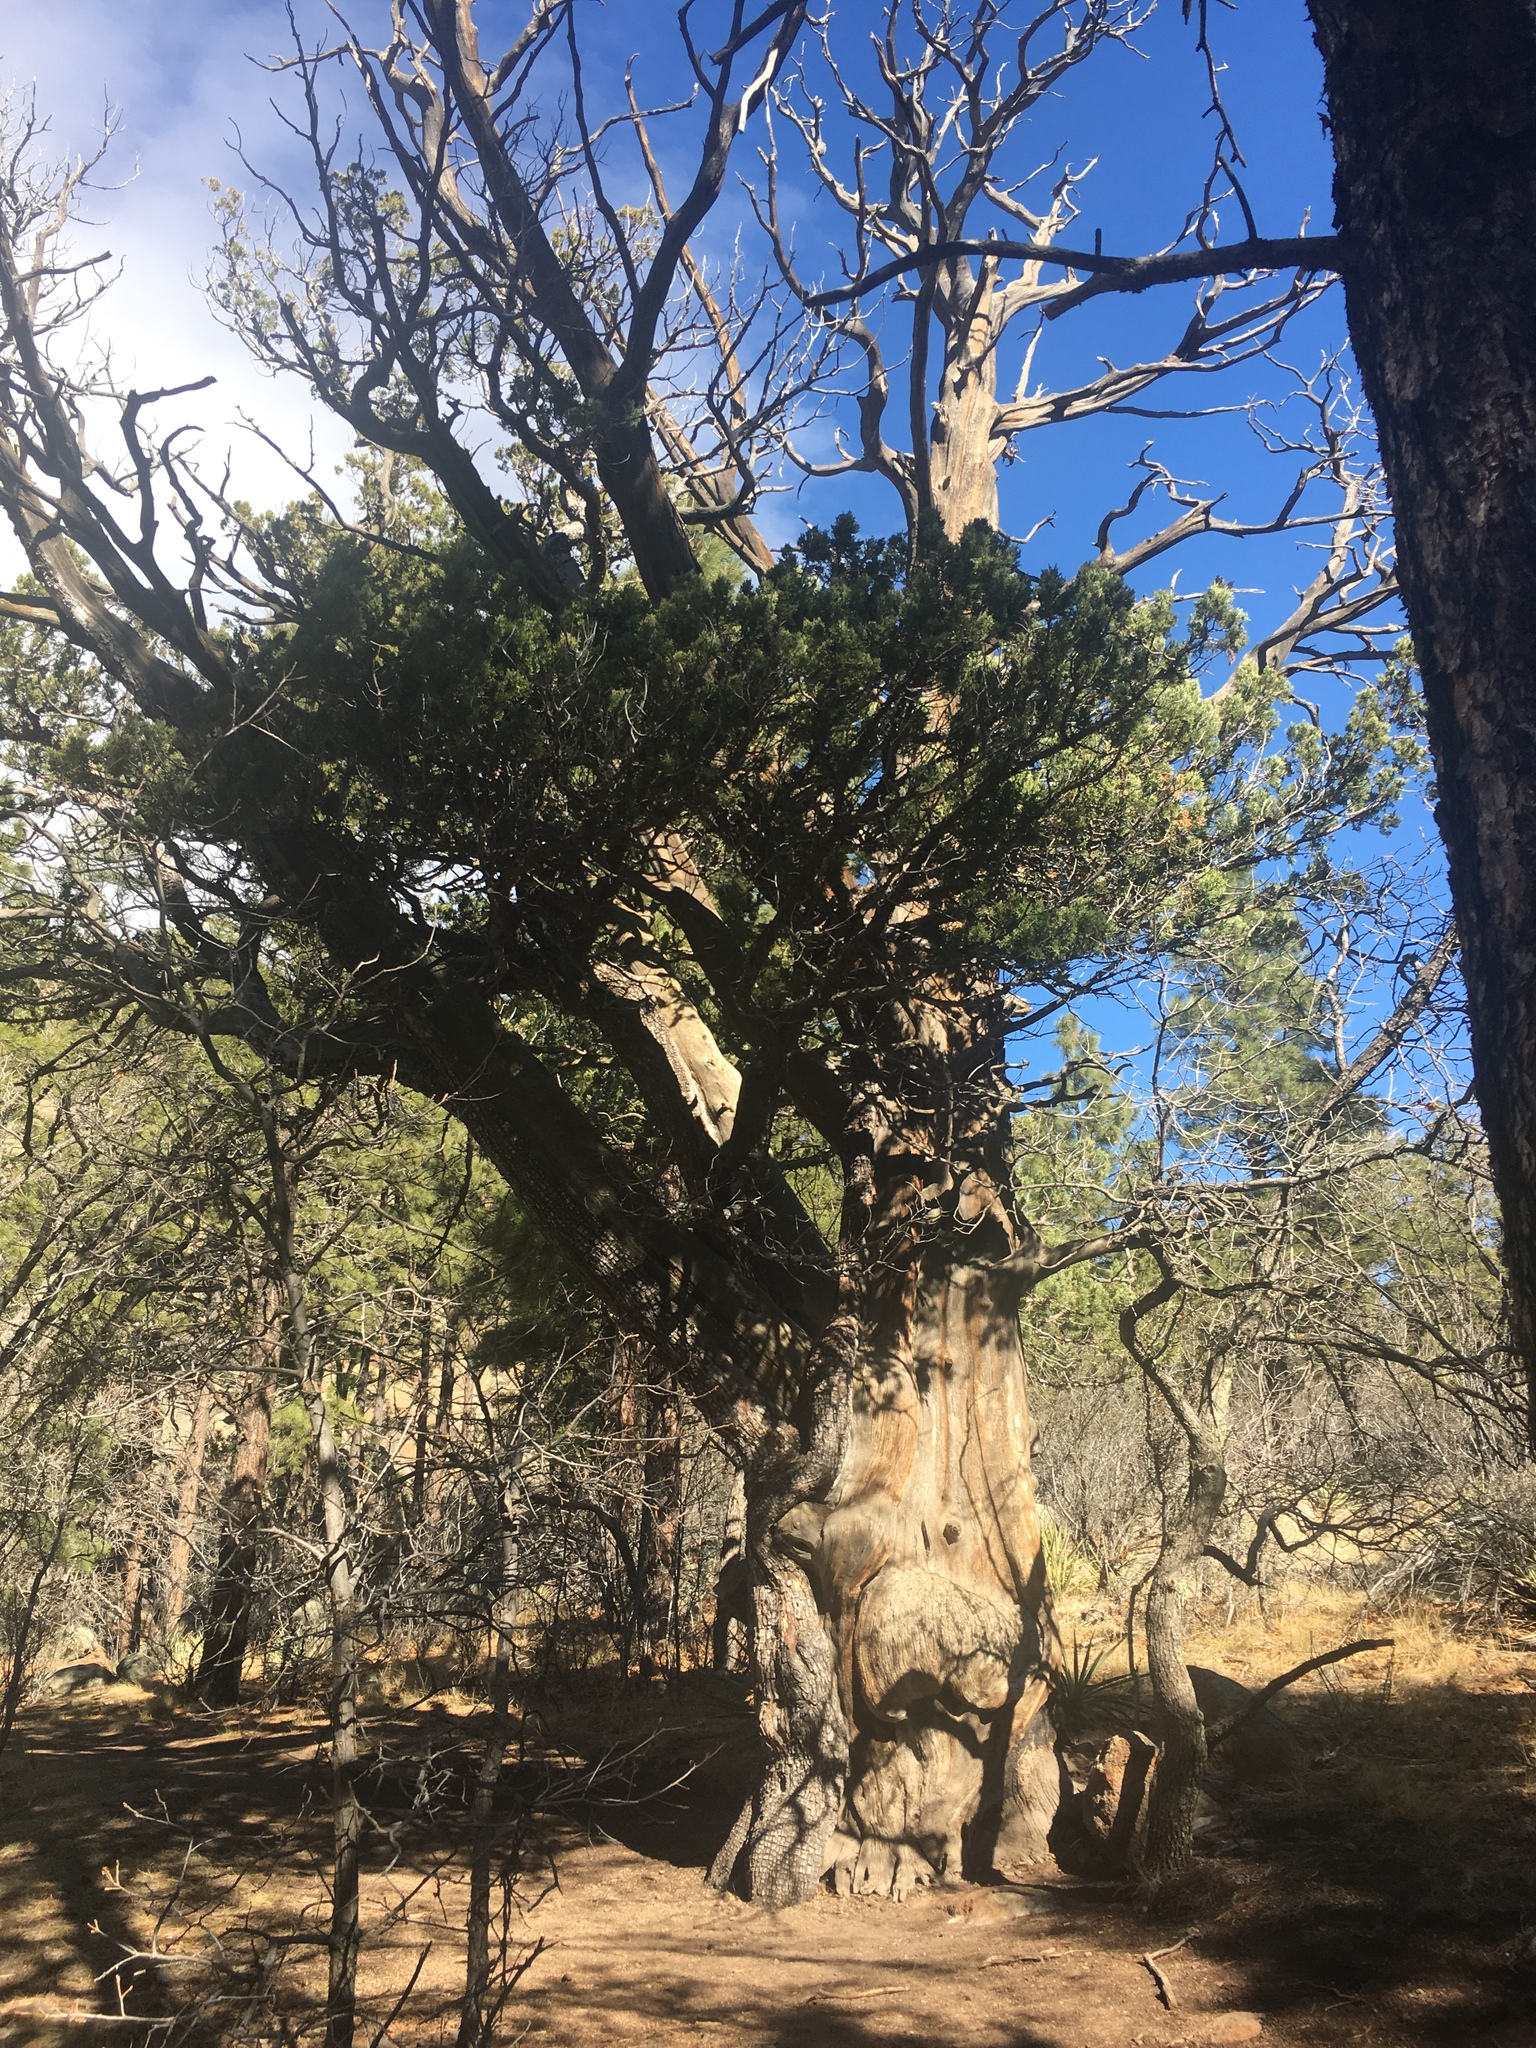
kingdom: Plantae
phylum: Tracheophyta
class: Pinopsida
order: Pinales
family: Cupressaceae
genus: Juniperus
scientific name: Juniperus deppeana
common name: Alligator juniper
